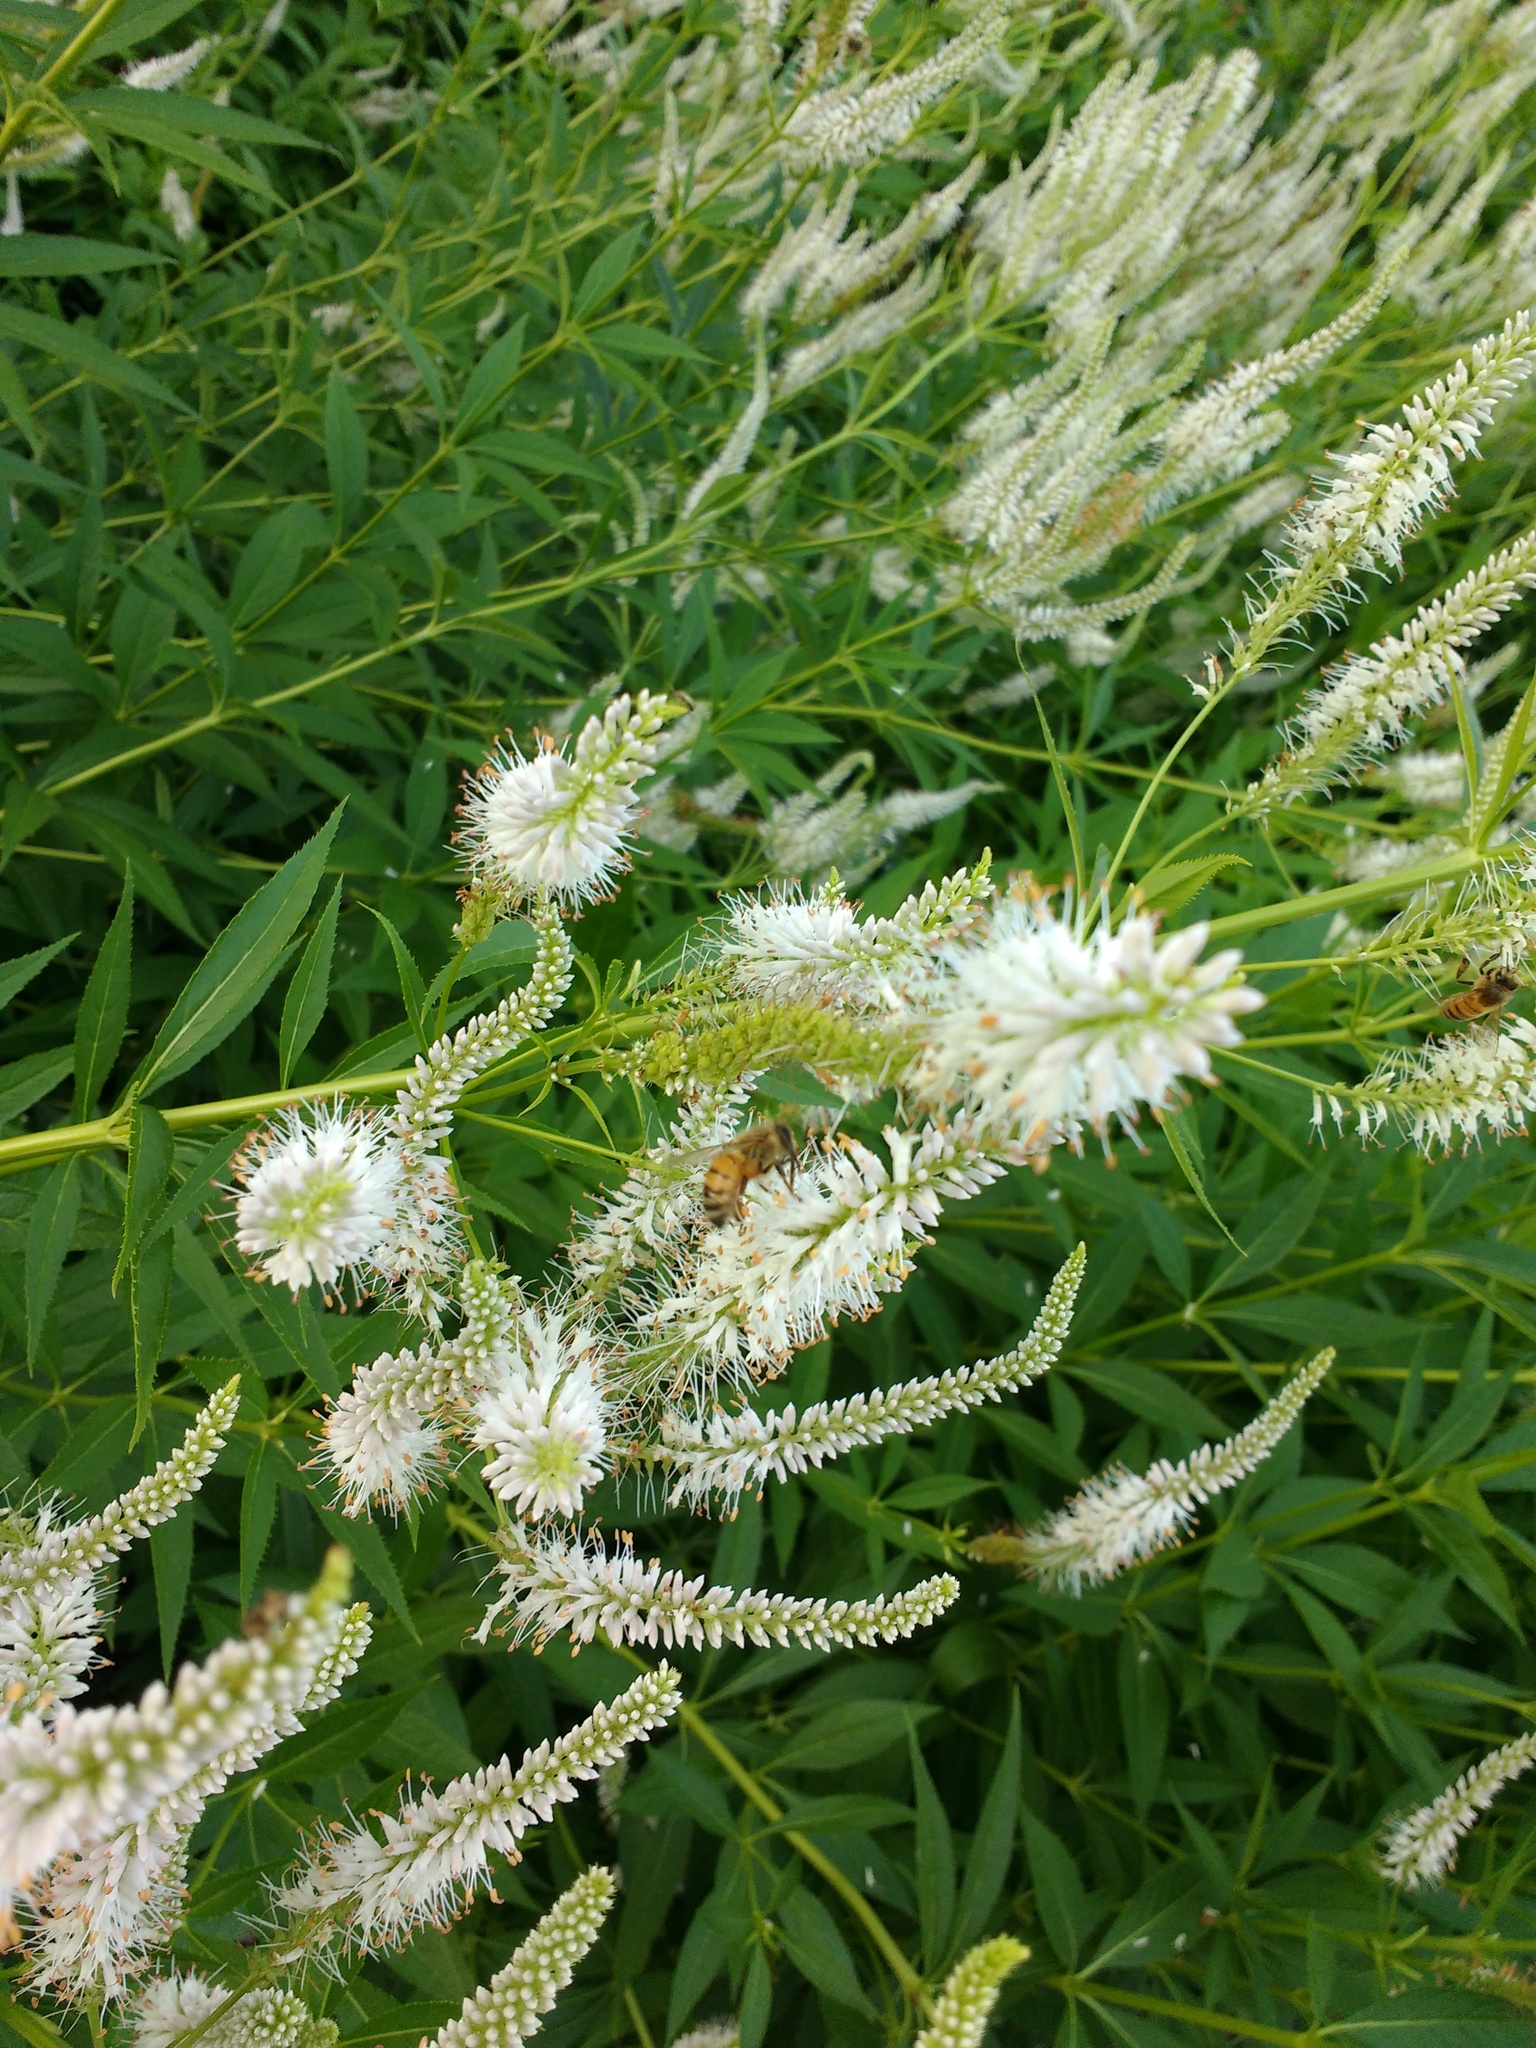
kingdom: Plantae
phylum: Tracheophyta
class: Magnoliopsida
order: Lamiales
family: Plantaginaceae
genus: Veronicastrum
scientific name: Veronicastrum virginicum
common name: Blackroot
